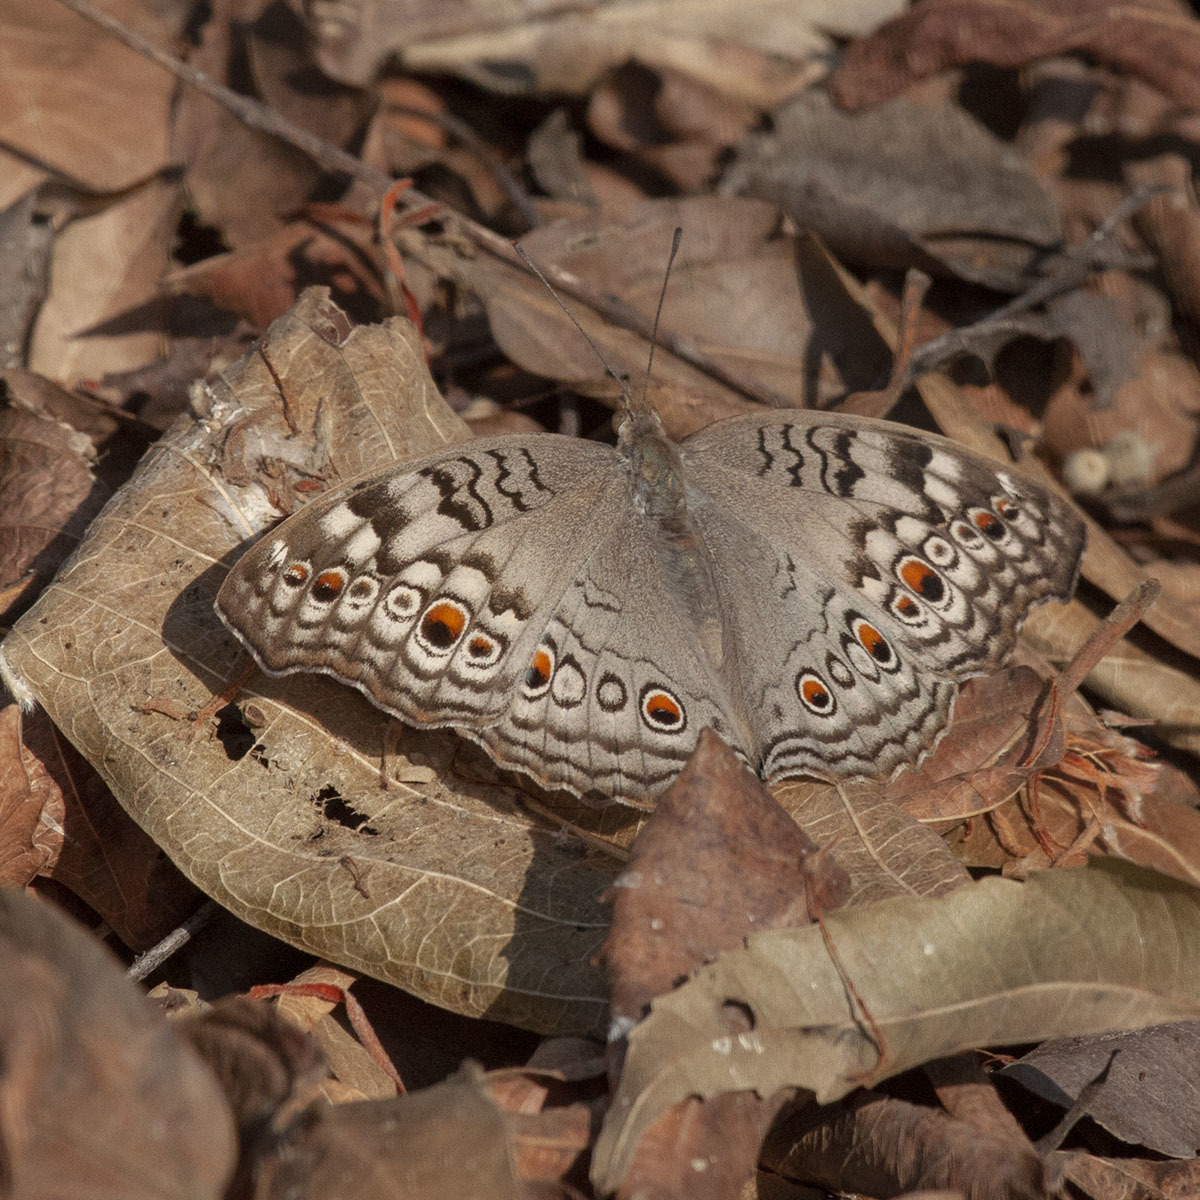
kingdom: Animalia
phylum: Arthropoda
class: Insecta
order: Lepidoptera
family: Nymphalidae
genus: Junonia
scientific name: Junonia atlites
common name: Grey pansy
